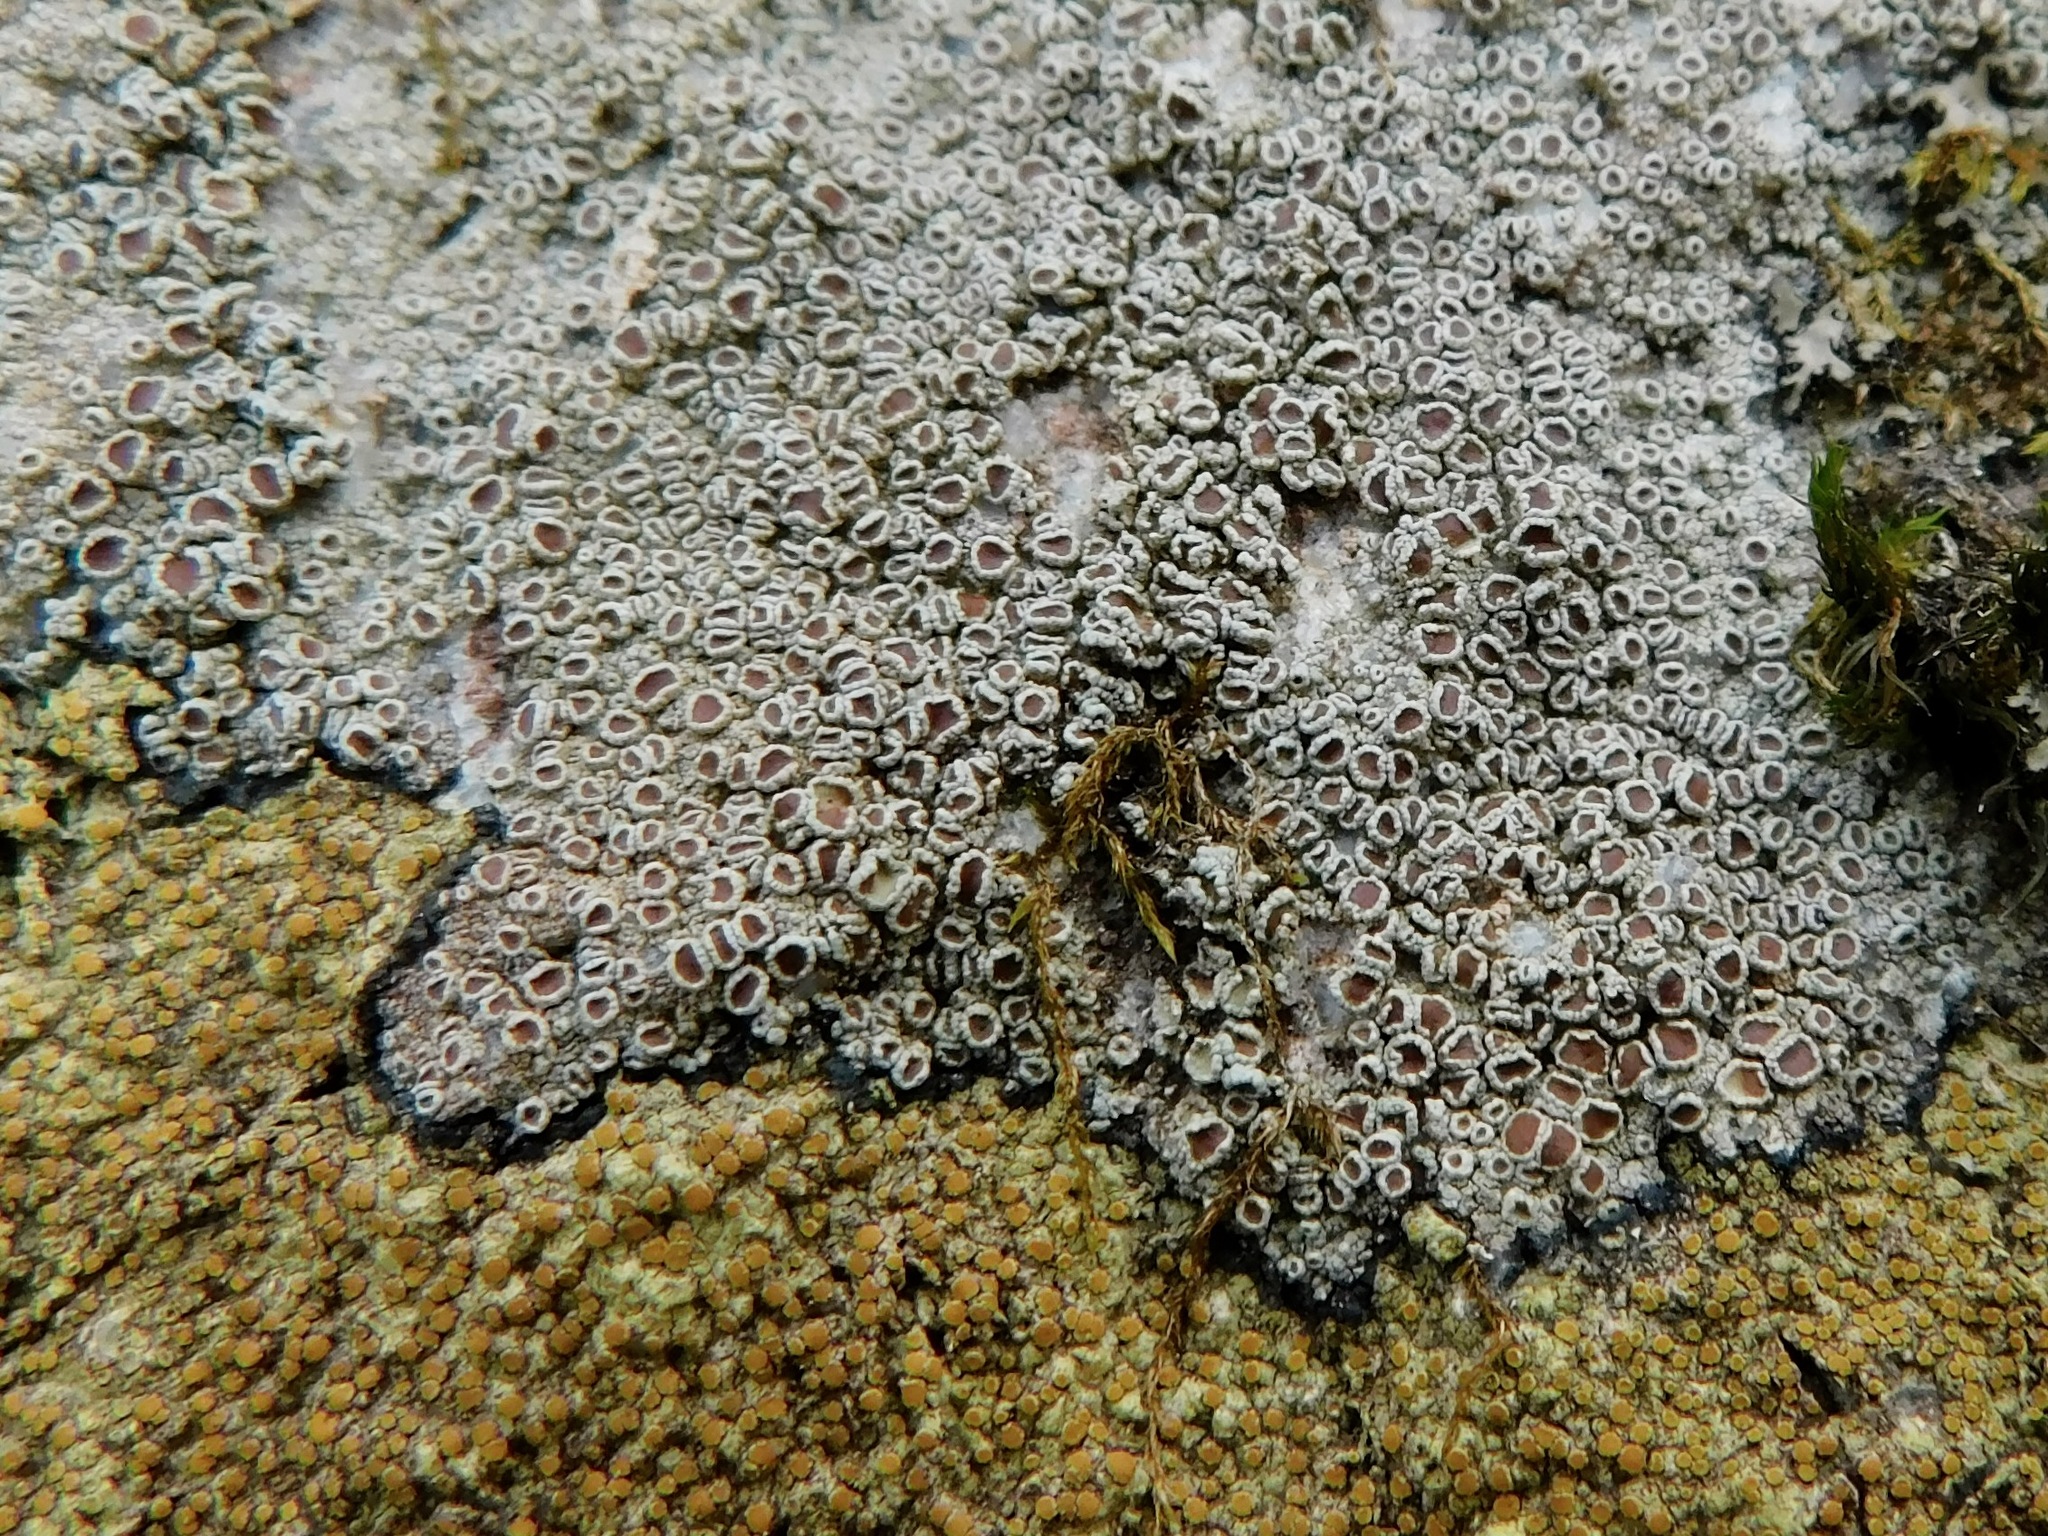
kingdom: Fungi
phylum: Ascomycota
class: Lecanoromycetes
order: Lecanorales
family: Lecanoraceae
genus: Lecanora
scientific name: Lecanora saxigena
